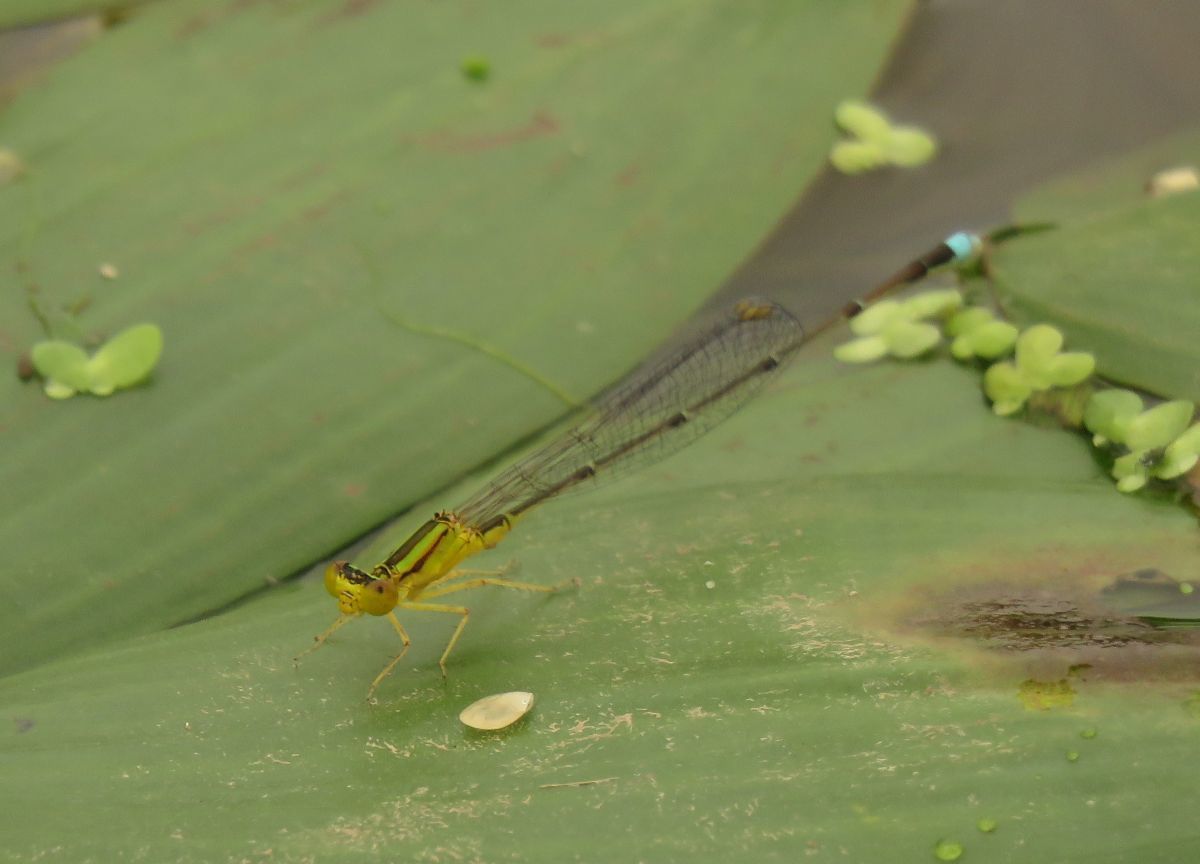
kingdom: Animalia
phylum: Arthropoda
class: Insecta
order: Odonata
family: Coenagrionidae
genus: Enallagma
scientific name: Enallagma vesperum
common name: Vesper bluet
